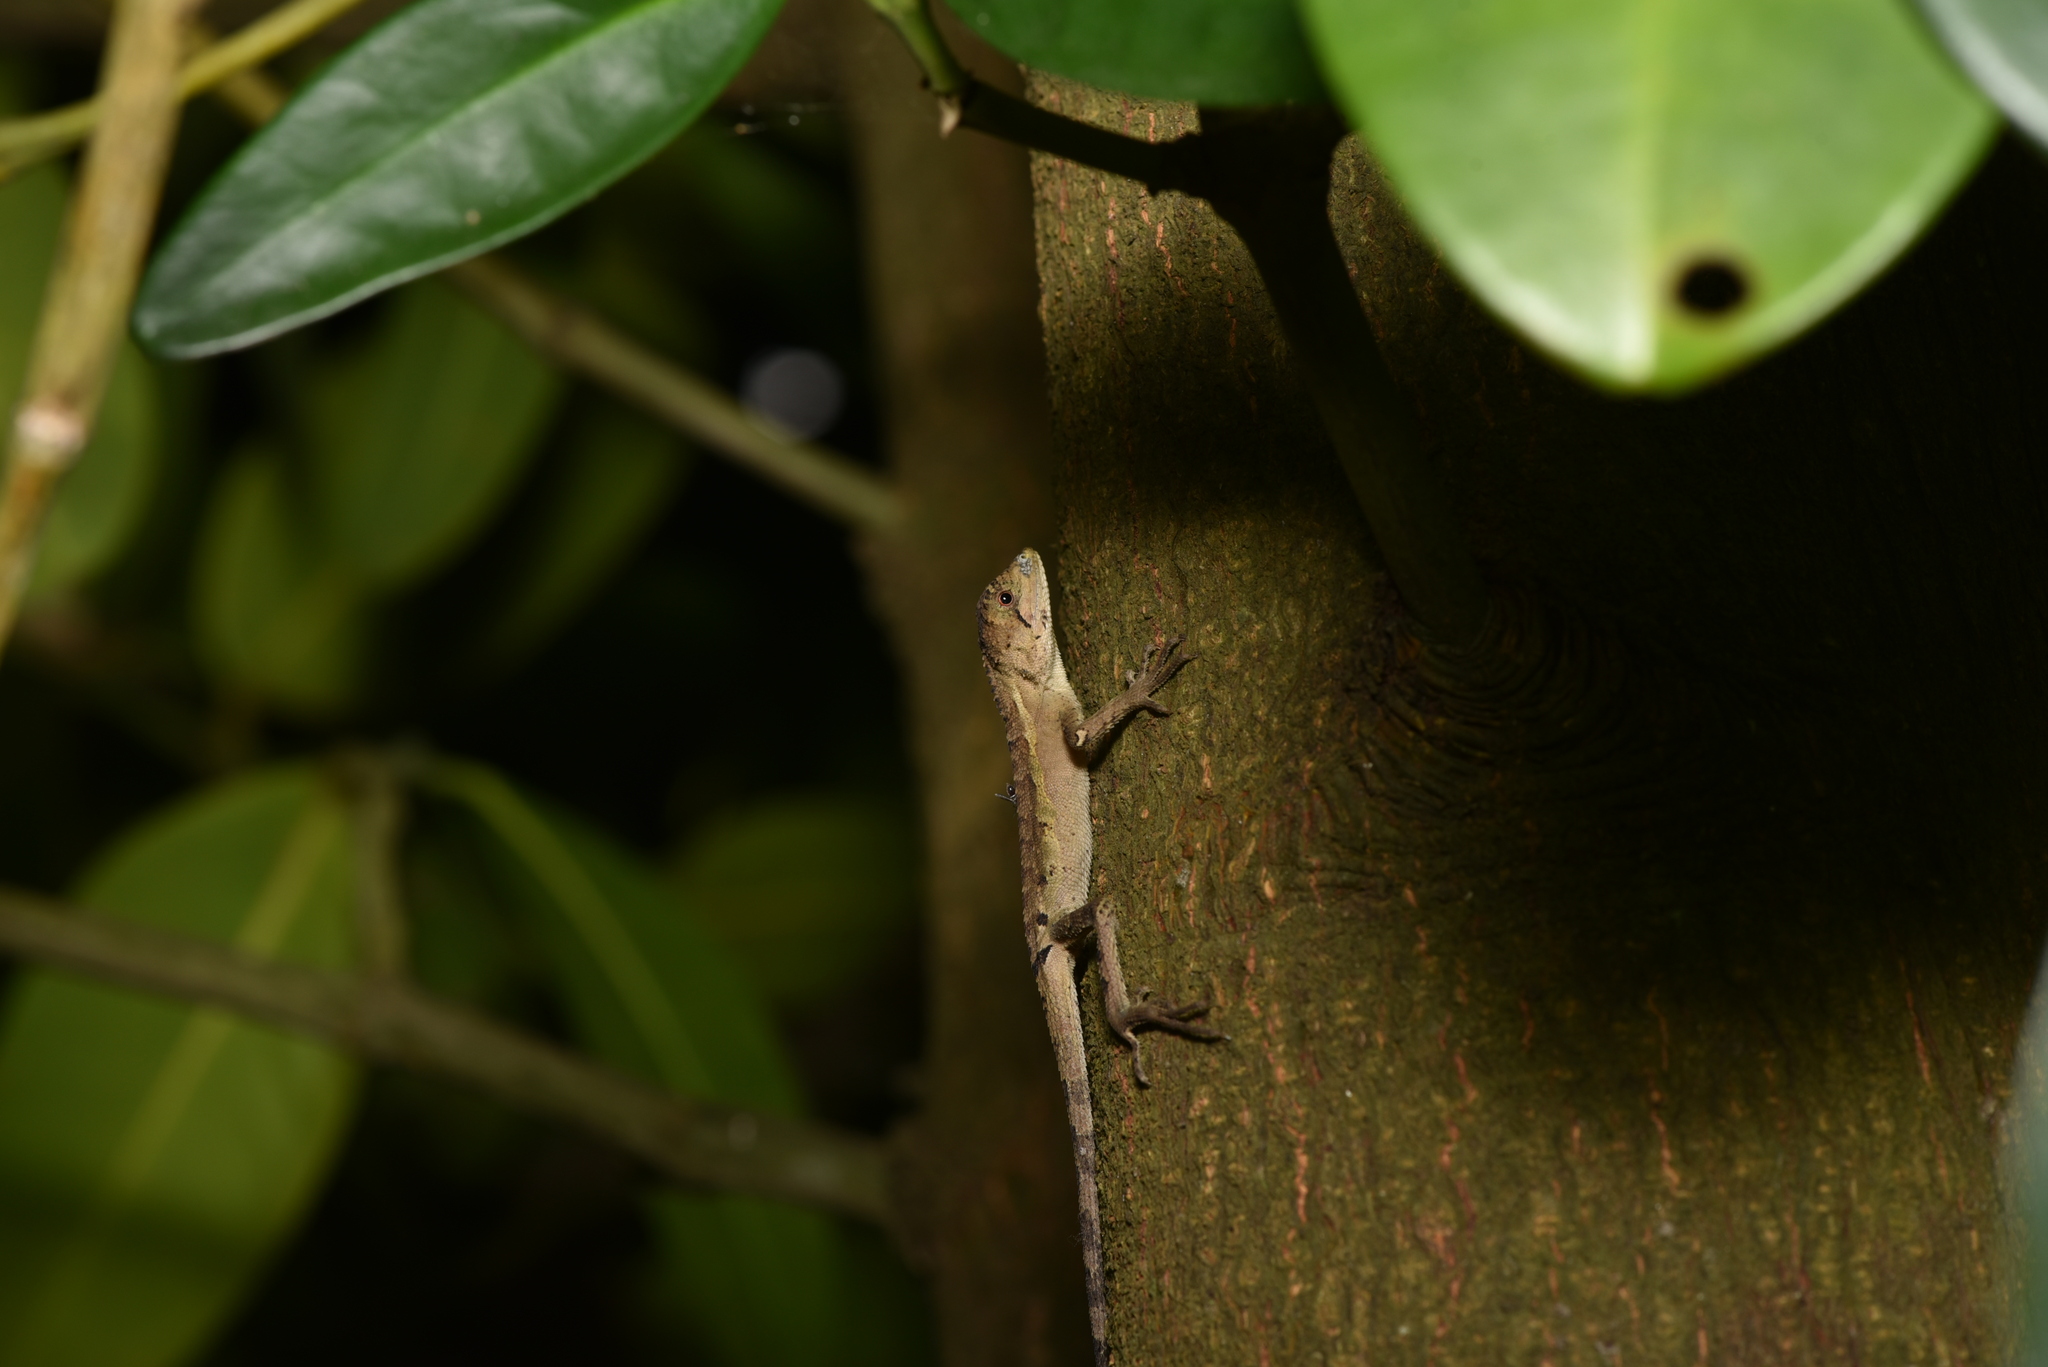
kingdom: Animalia
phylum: Chordata
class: Squamata
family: Agamidae
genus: Diploderma
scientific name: Diploderma swinhonis
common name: Taiwan japalure
